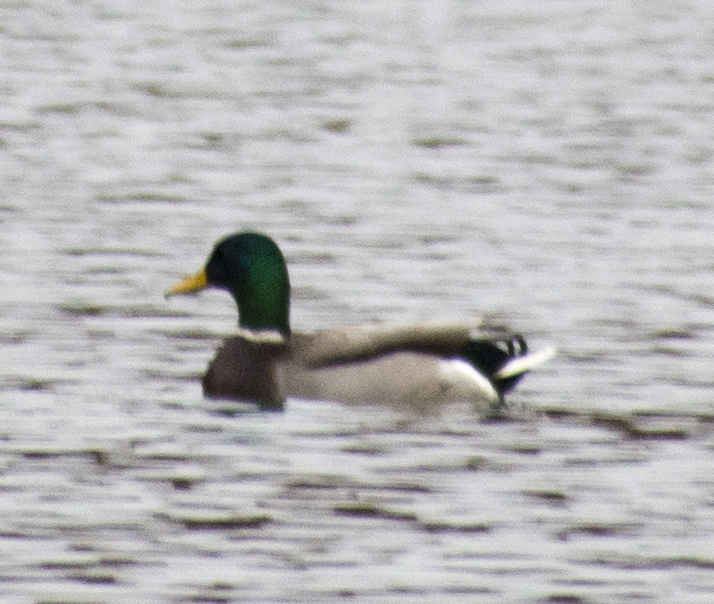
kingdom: Animalia
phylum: Chordata
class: Aves
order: Anseriformes
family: Anatidae
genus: Anas
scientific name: Anas platyrhynchos
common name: Mallard
